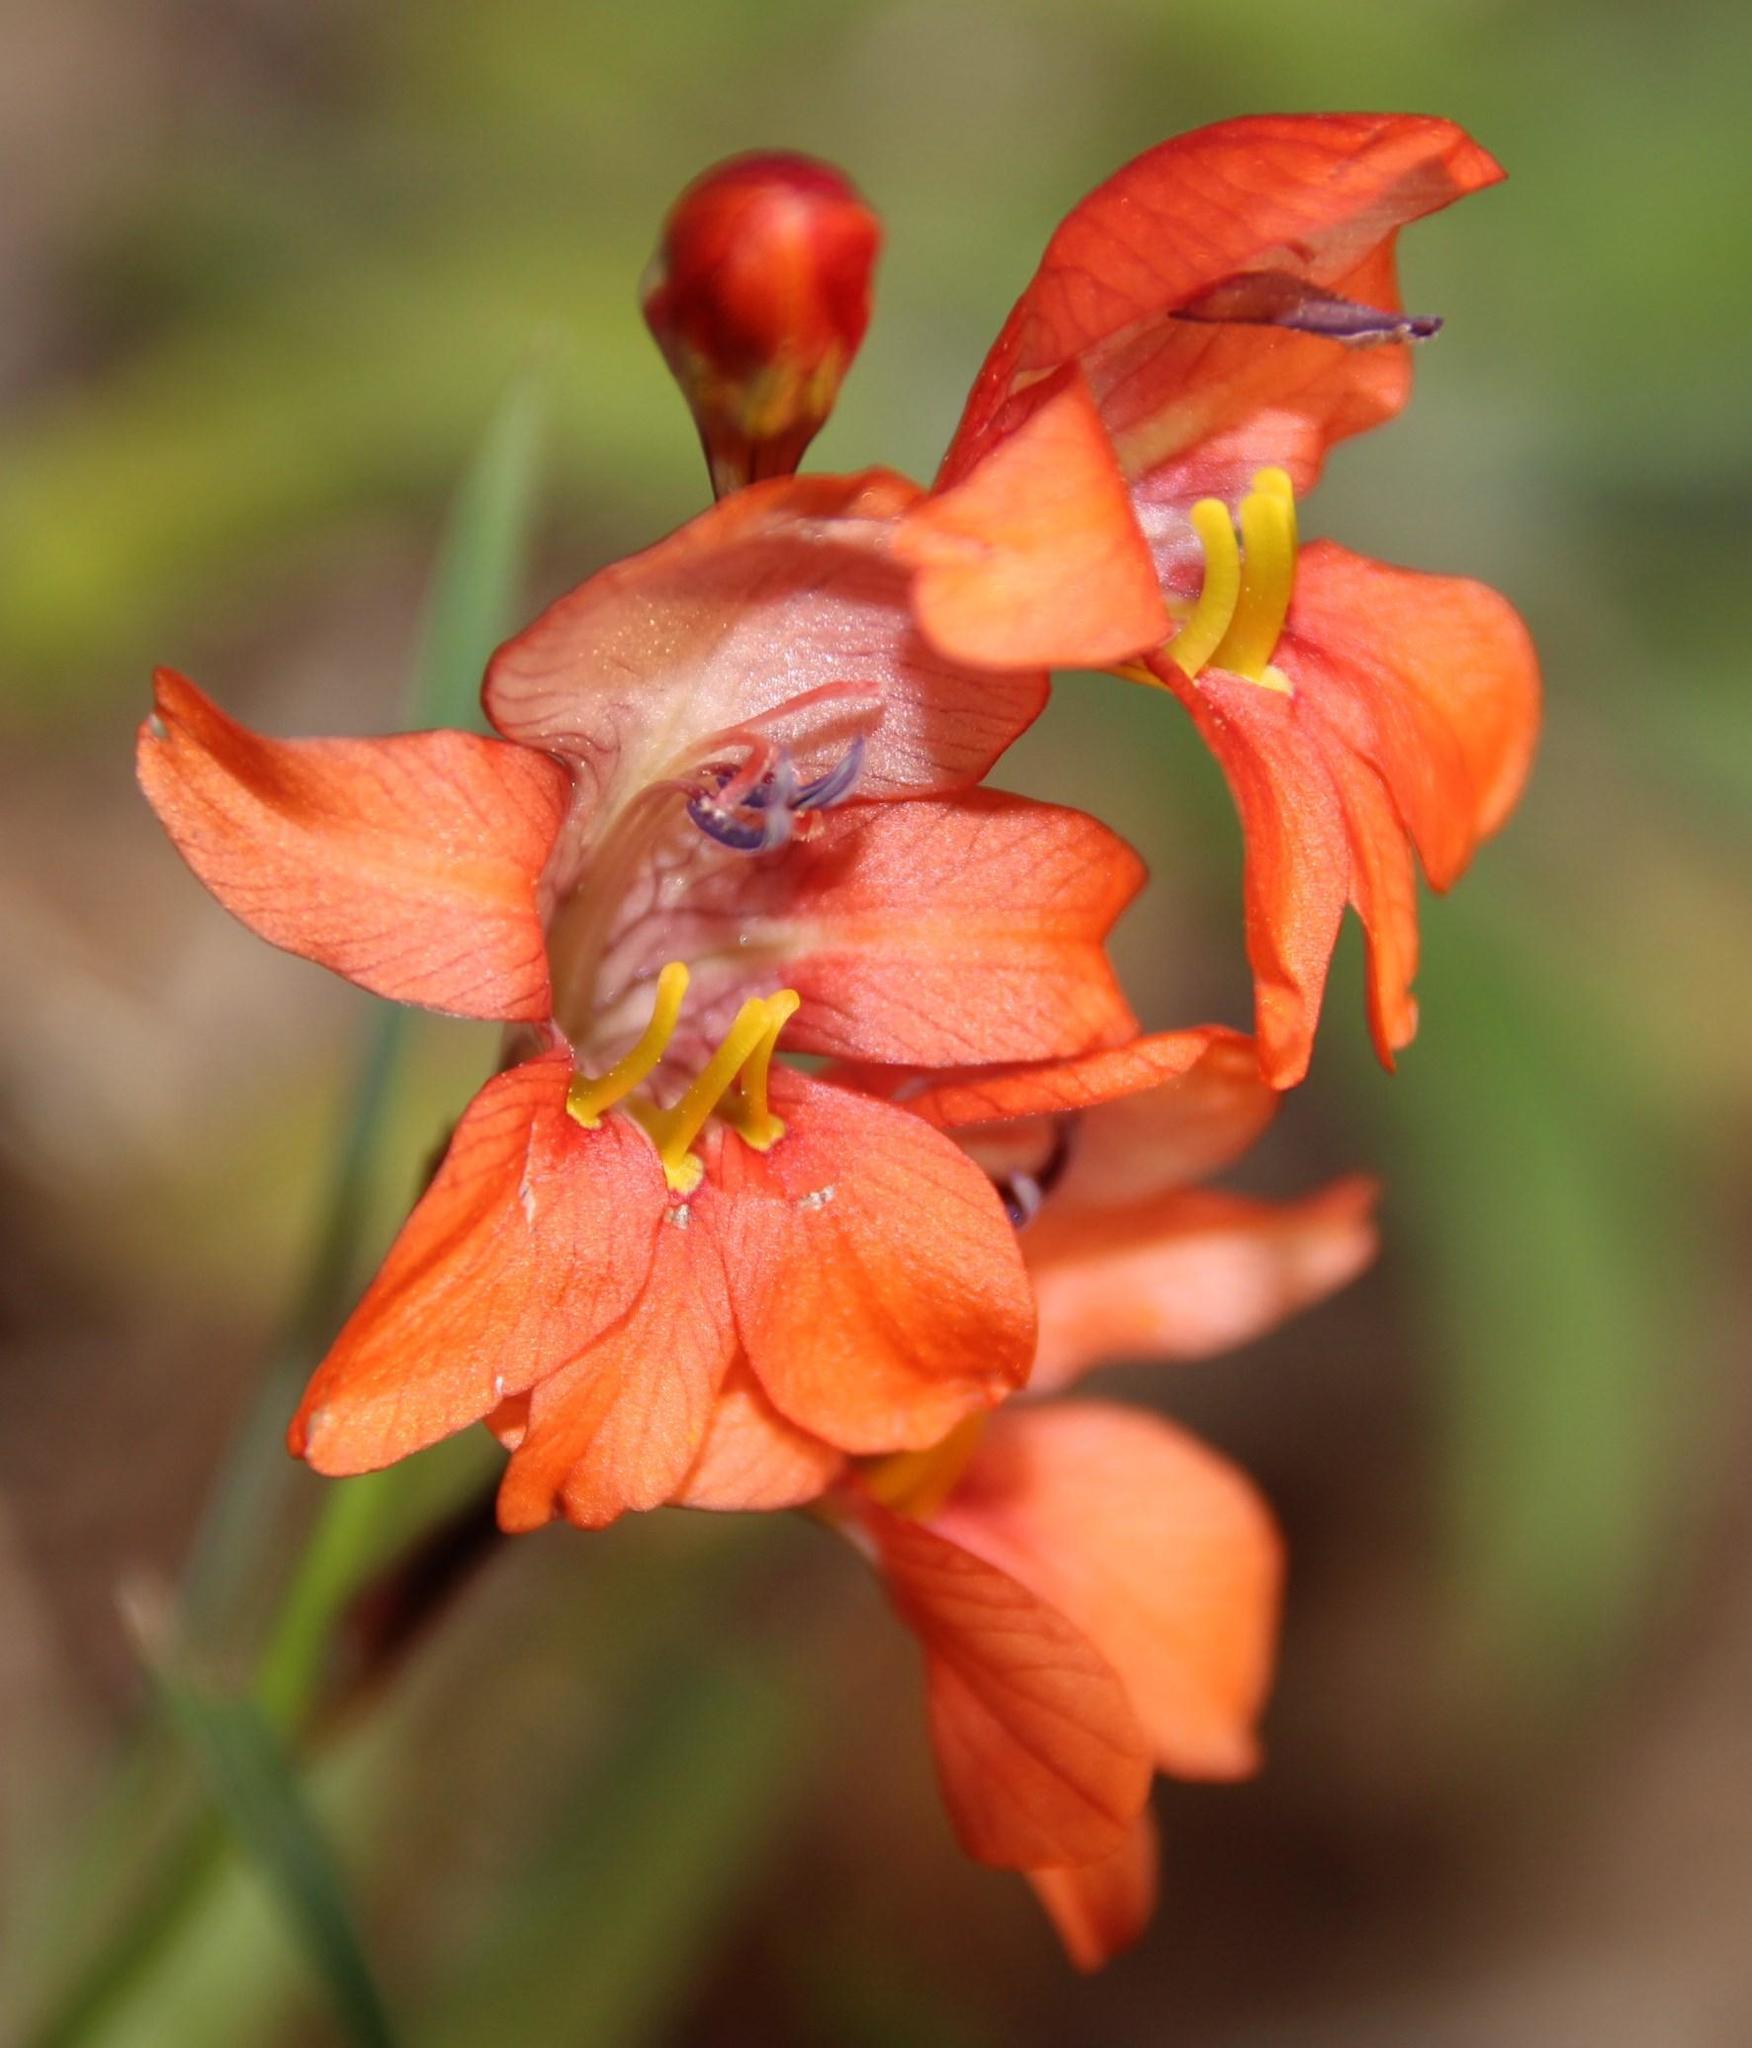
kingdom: Plantae
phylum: Tracheophyta
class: Liliopsida
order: Asparagales
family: Iridaceae
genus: Tritonia
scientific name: Tritonia laxifolia
